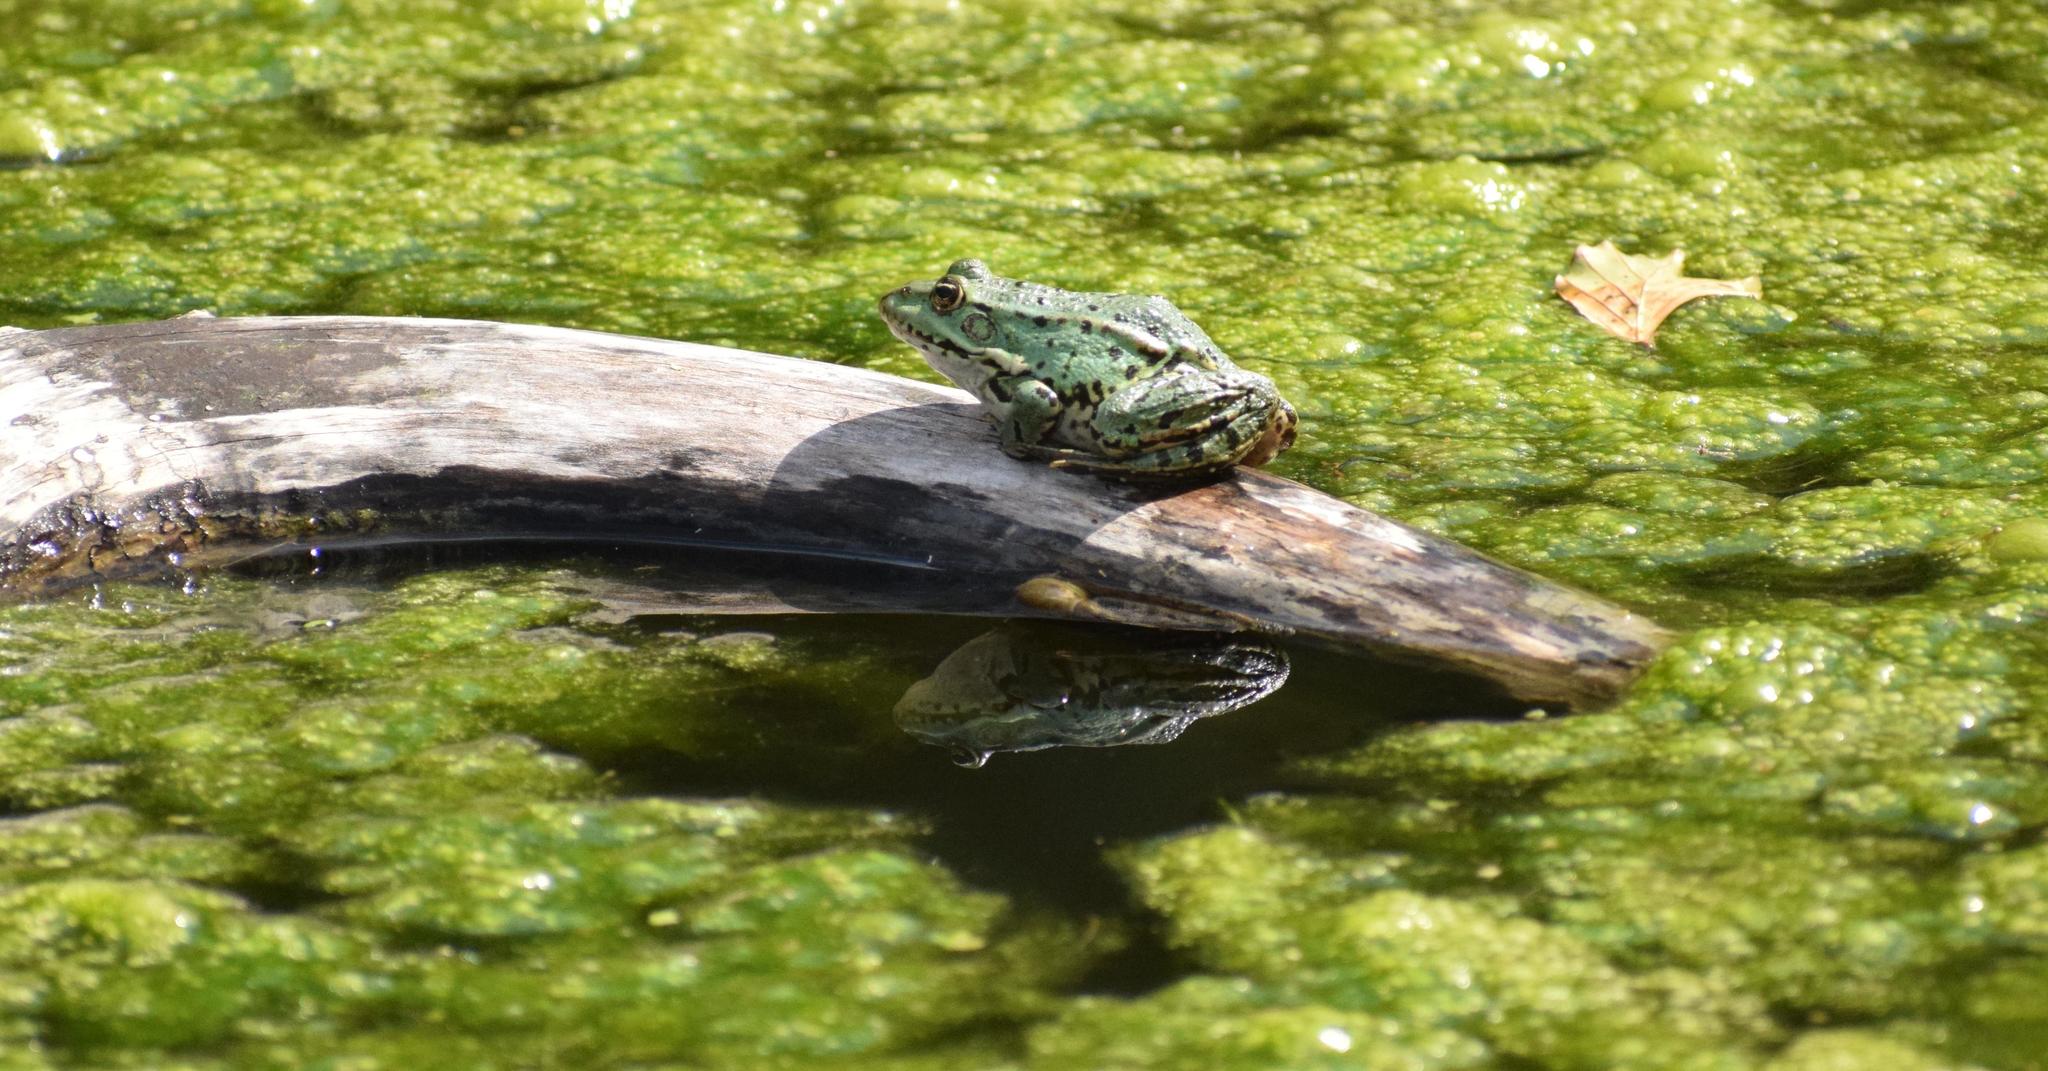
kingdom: Animalia
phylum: Chordata
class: Amphibia
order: Anura
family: Ranidae
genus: Pelophylax
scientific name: Pelophylax
